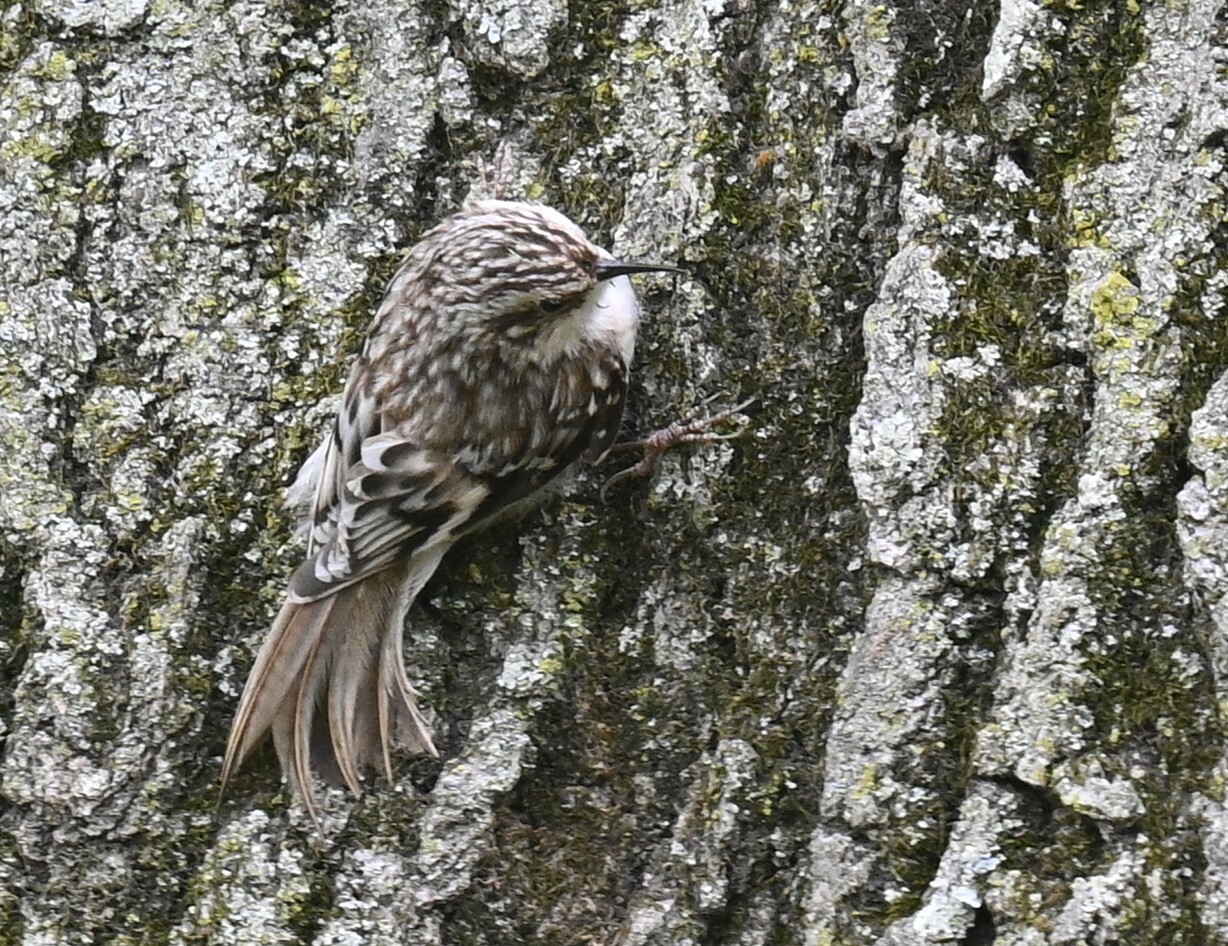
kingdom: Animalia
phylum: Chordata
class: Aves
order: Passeriformes
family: Certhiidae
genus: Certhia
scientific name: Certhia americana
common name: Brown creeper
